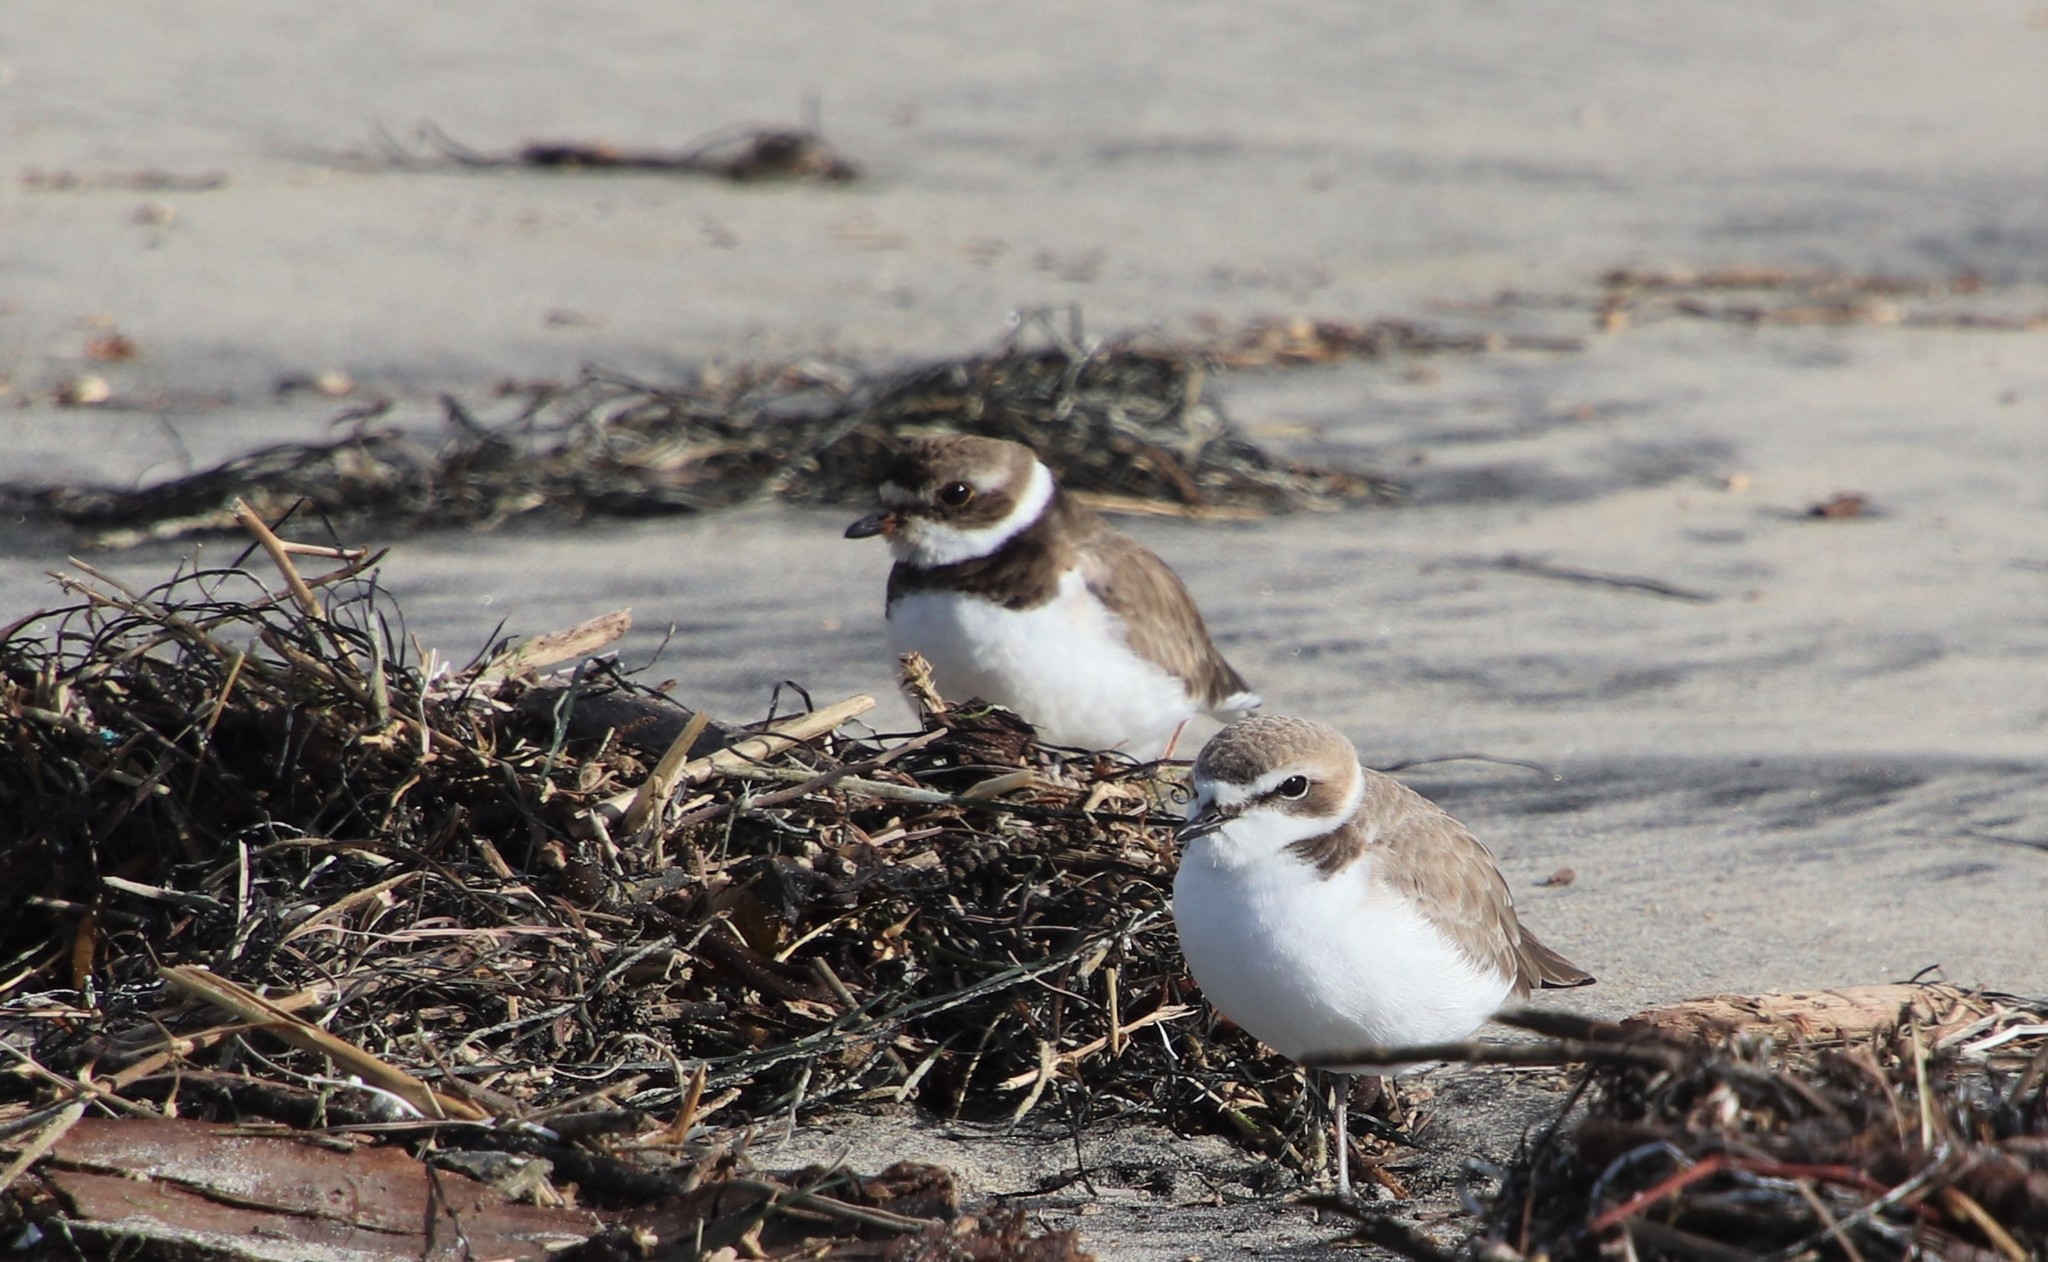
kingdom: Animalia
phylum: Chordata
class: Aves
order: Charadriiformes
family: Charadriidae
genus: Charadrius
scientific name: Charadrius semipalmatus
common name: Semipalmated plover
